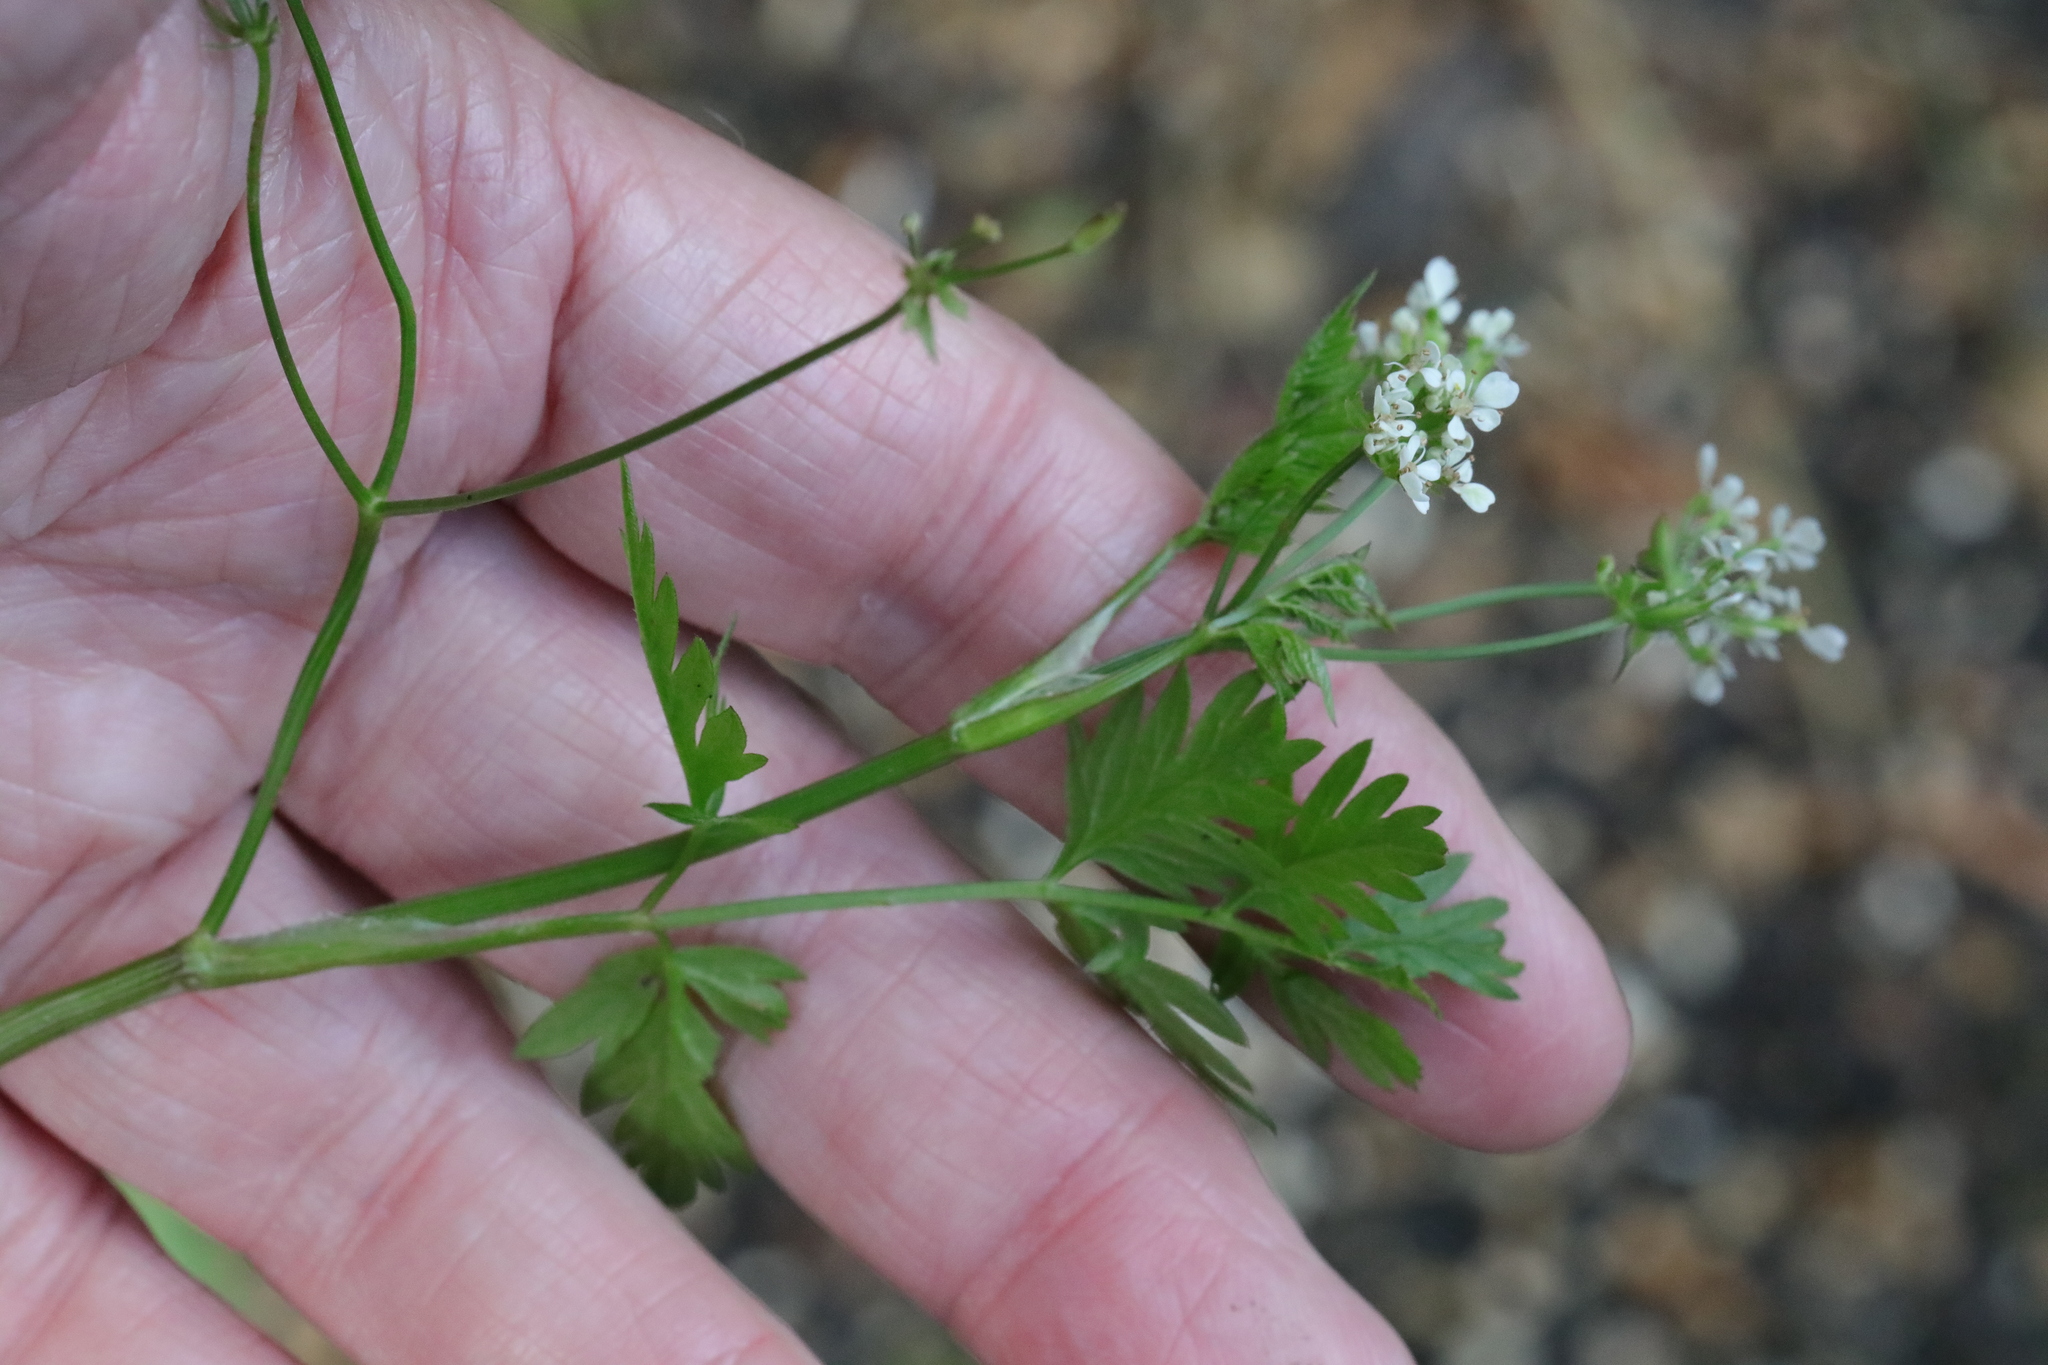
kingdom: Plantae
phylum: Tracheophyta
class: Magnoliopsida
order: Apiales
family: Apiaceae
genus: Anthriscus
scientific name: Anthriscus sylvestris
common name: Cow parsley
